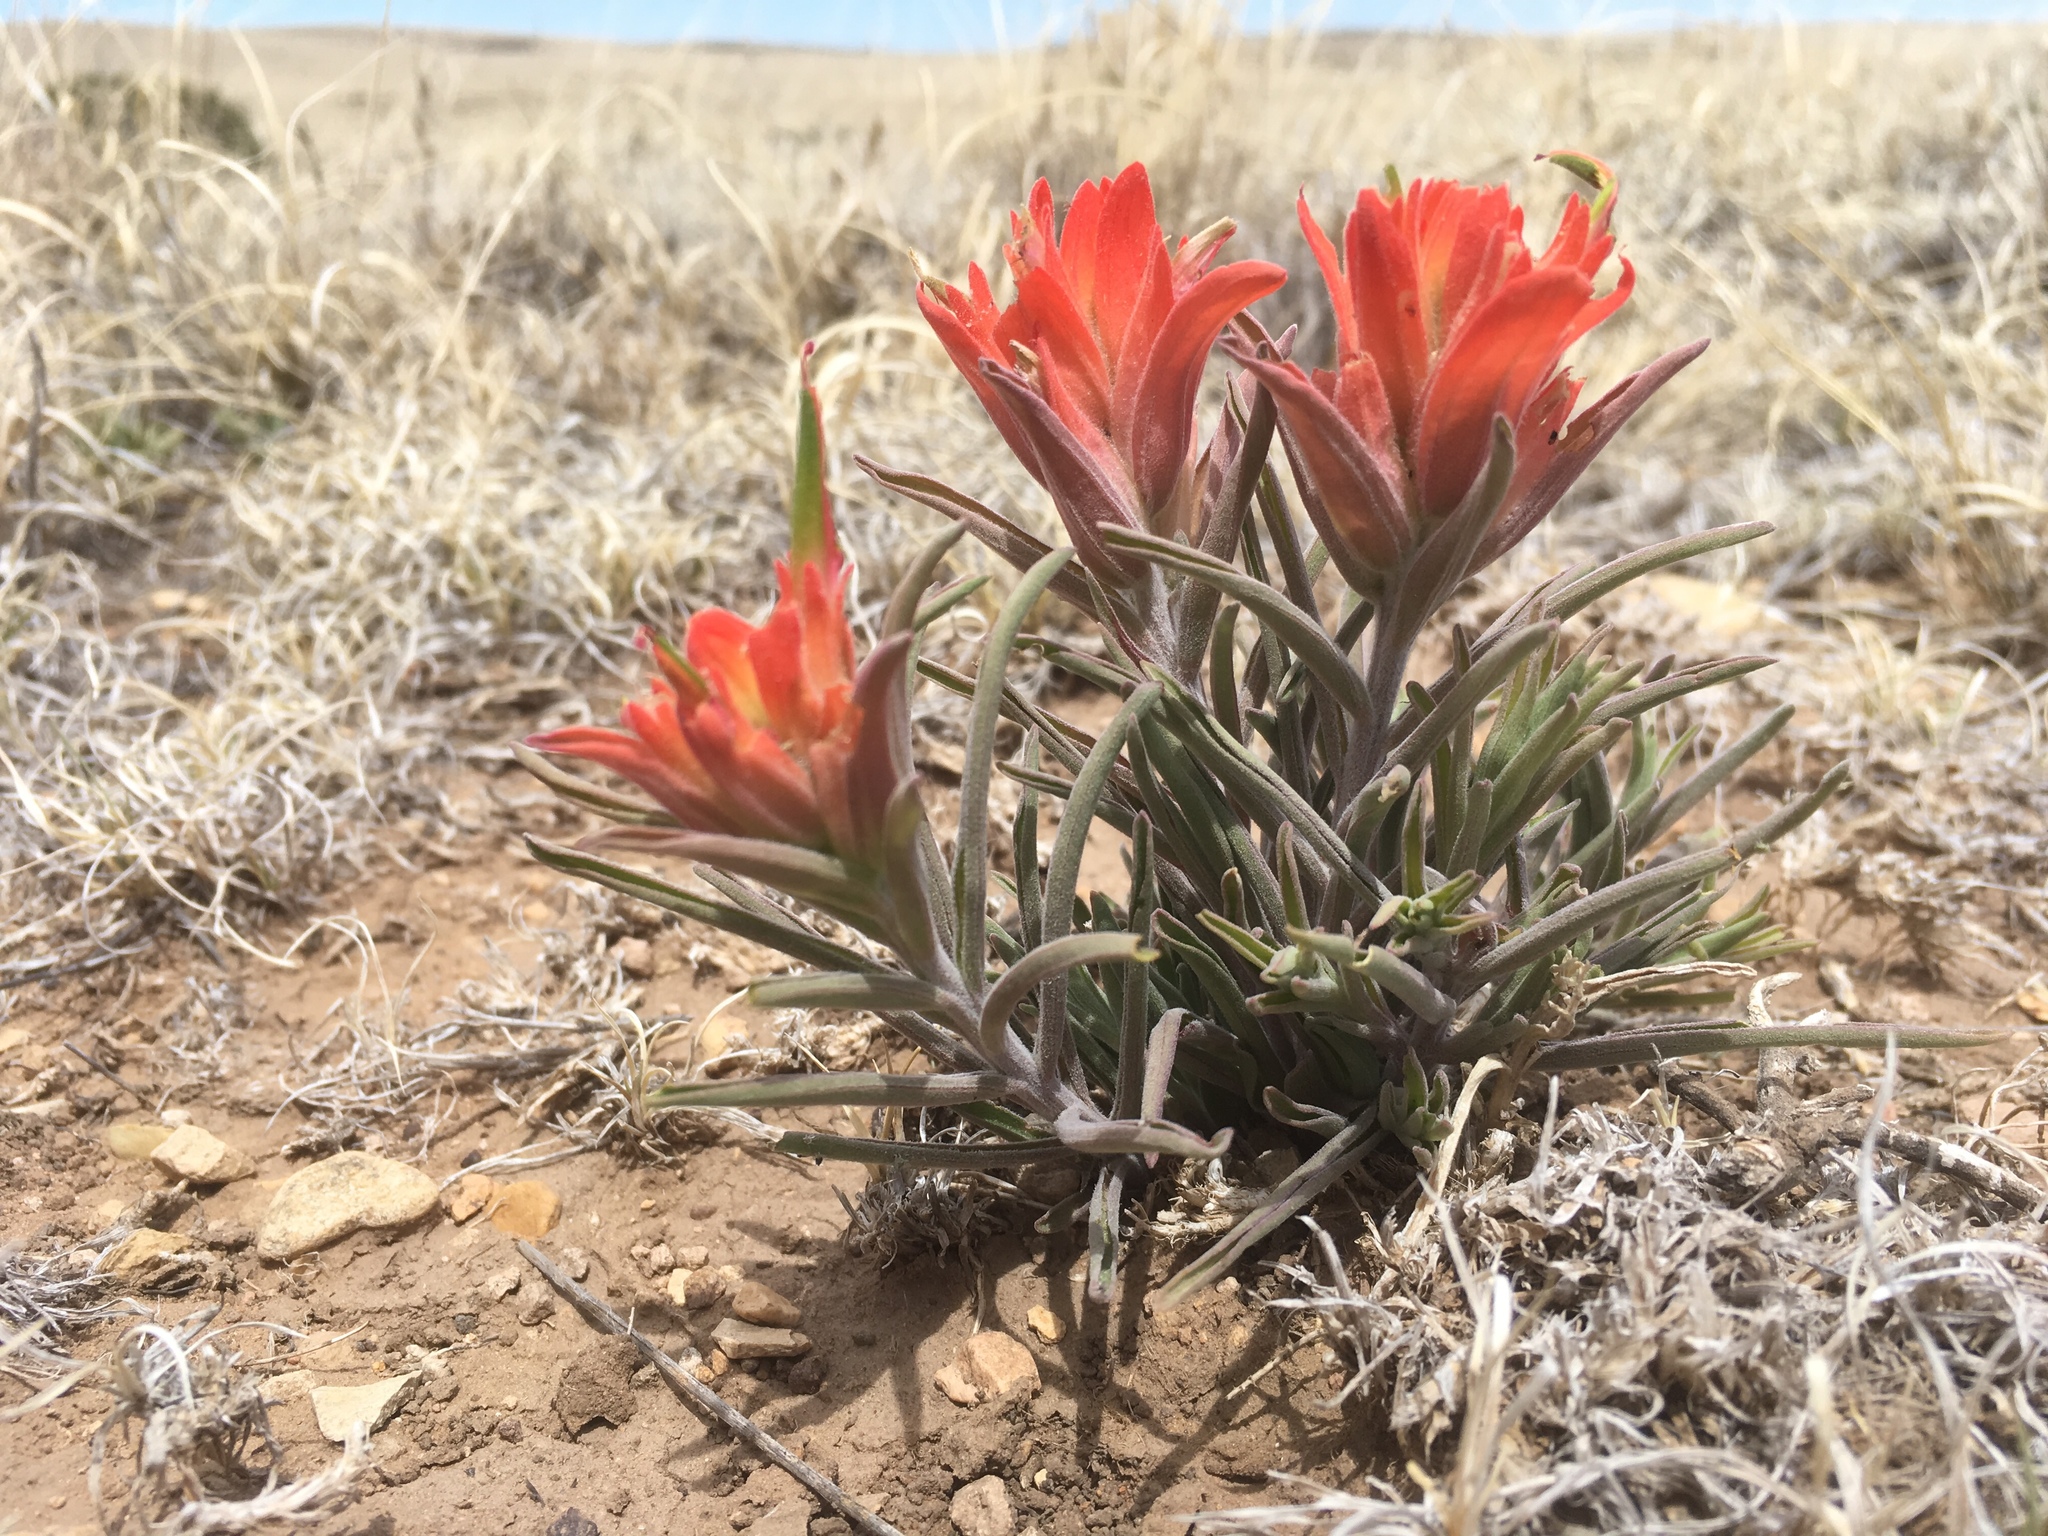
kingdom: Plantae
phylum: Tracheophyta
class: Magnoliopsida
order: Lamiales
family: Orobanchaceae
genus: Castilleja
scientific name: Castilleja integra
